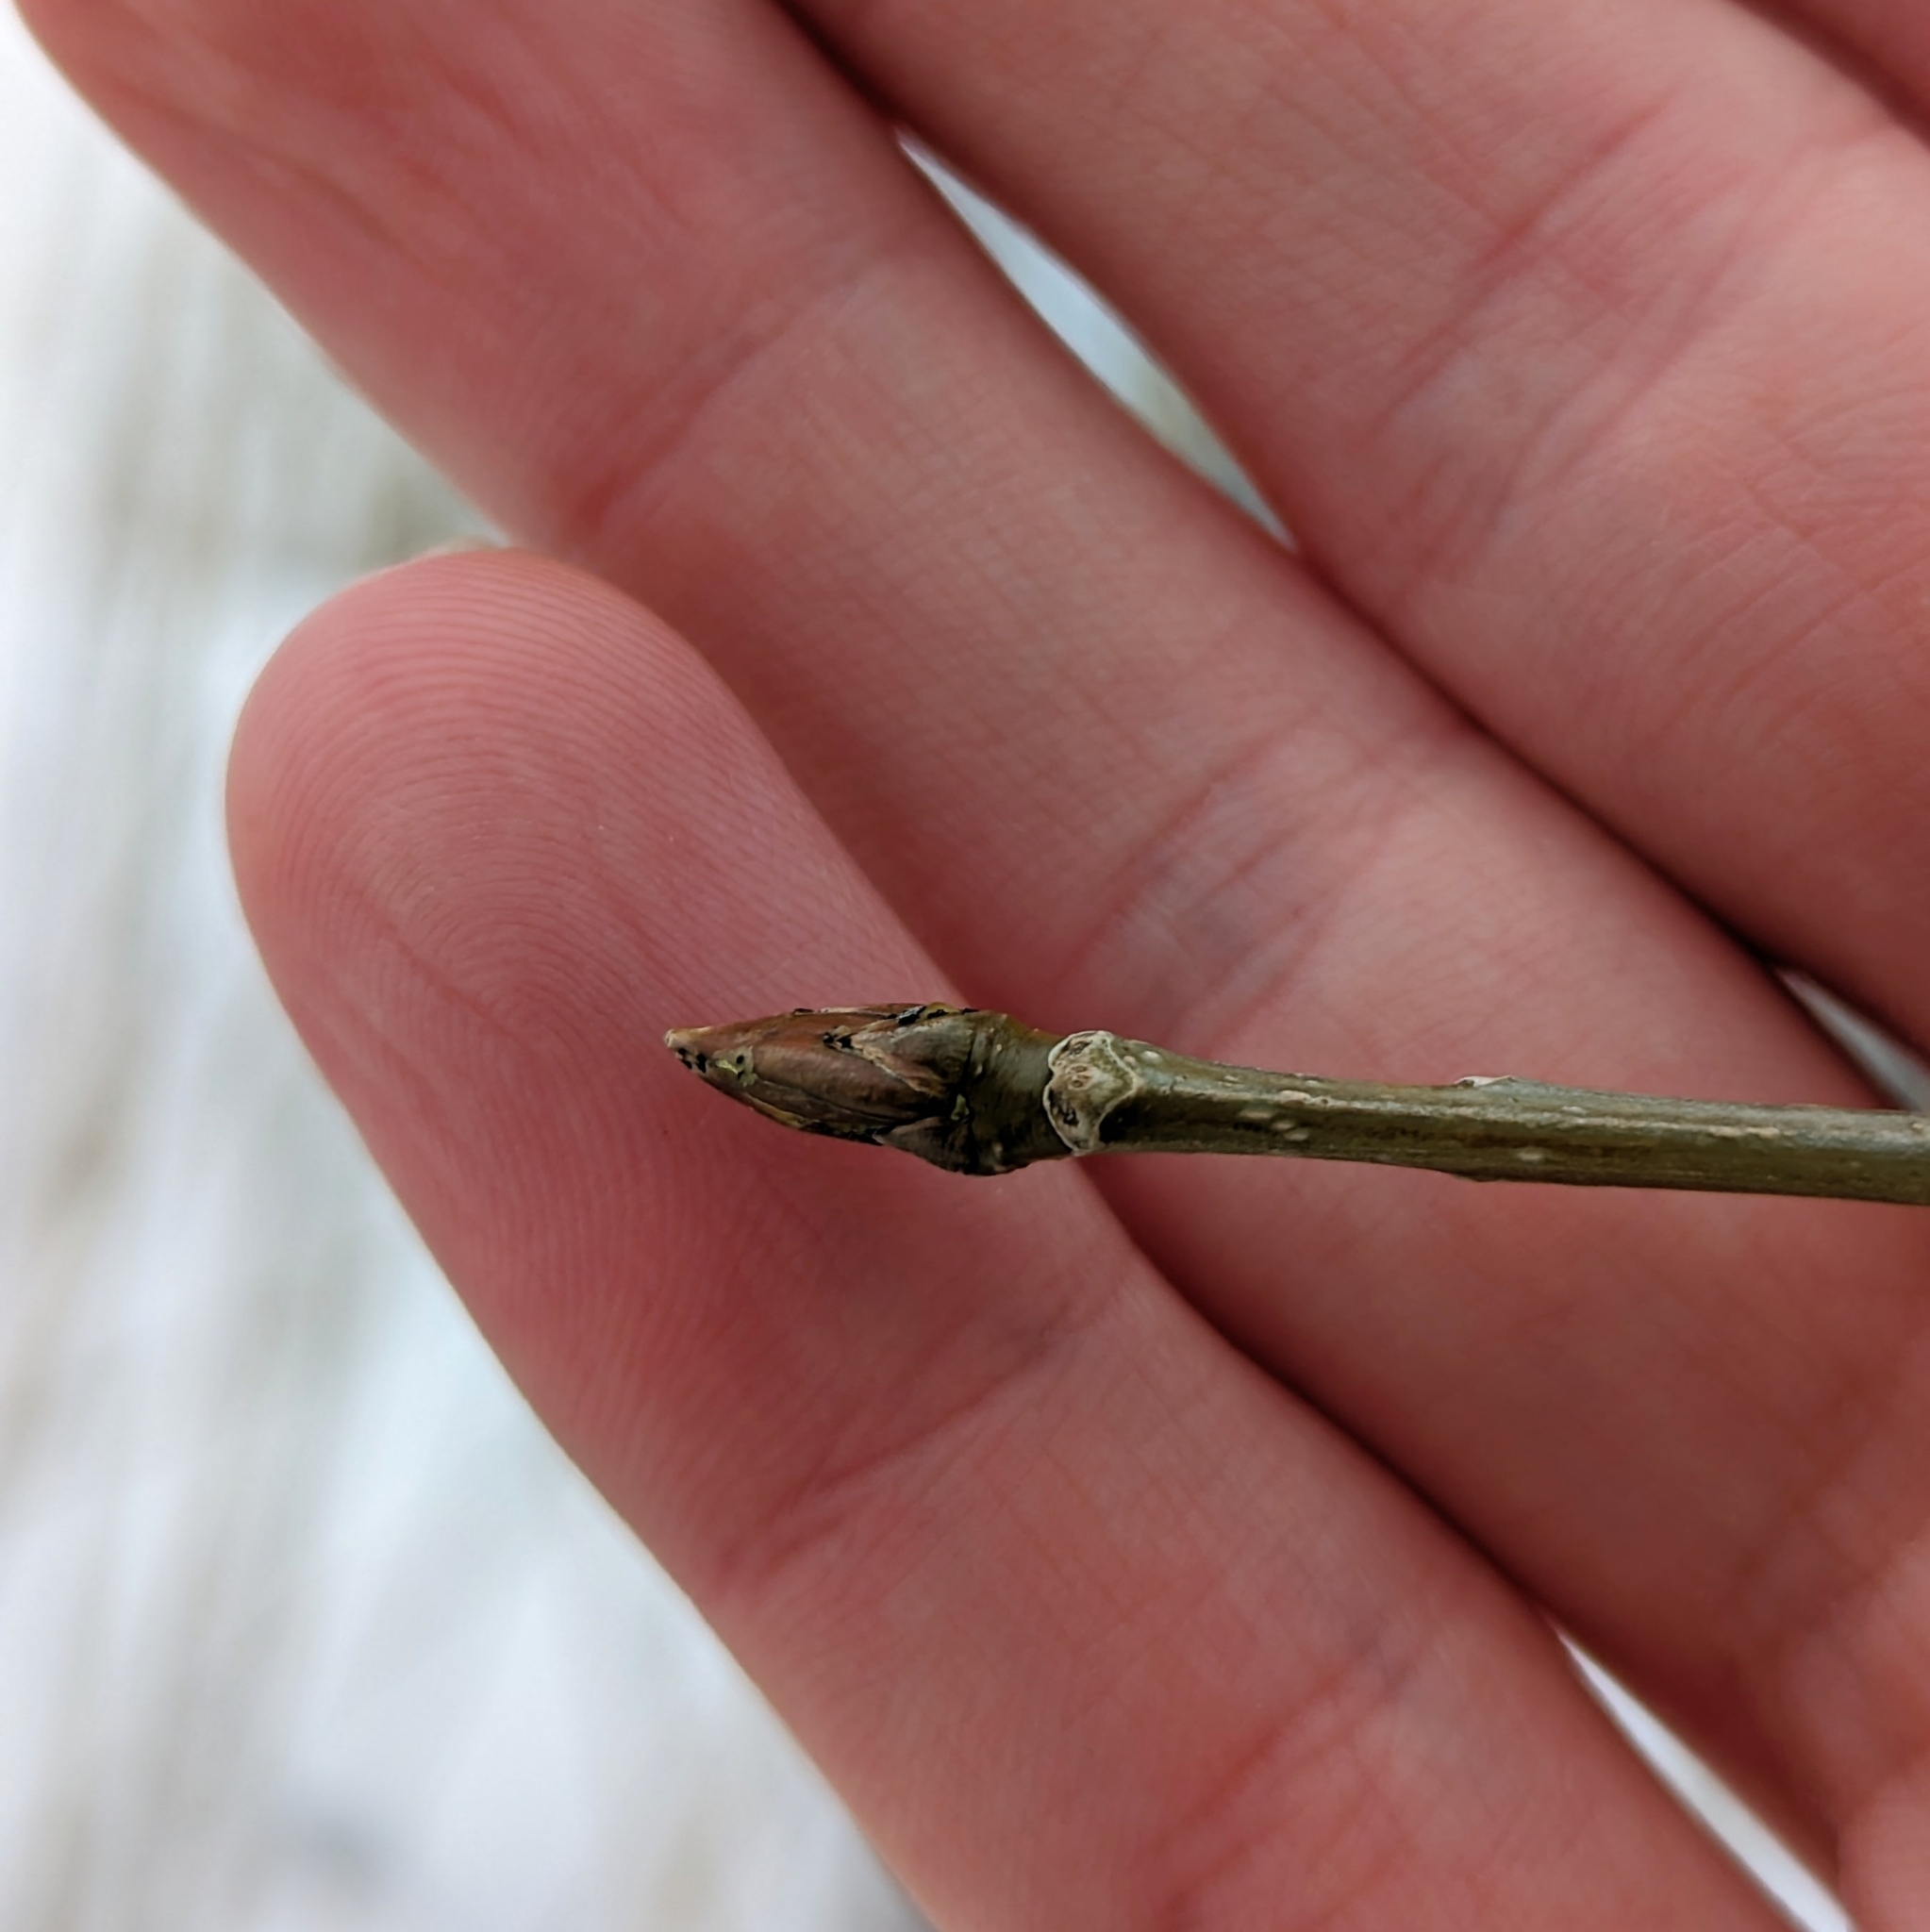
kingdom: Plantae
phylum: Tracheophyta
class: Magnoliopsida
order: Malpighiales
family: Salicaceae
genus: Populus
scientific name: Populus deltoides
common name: Eastern cottonwood
